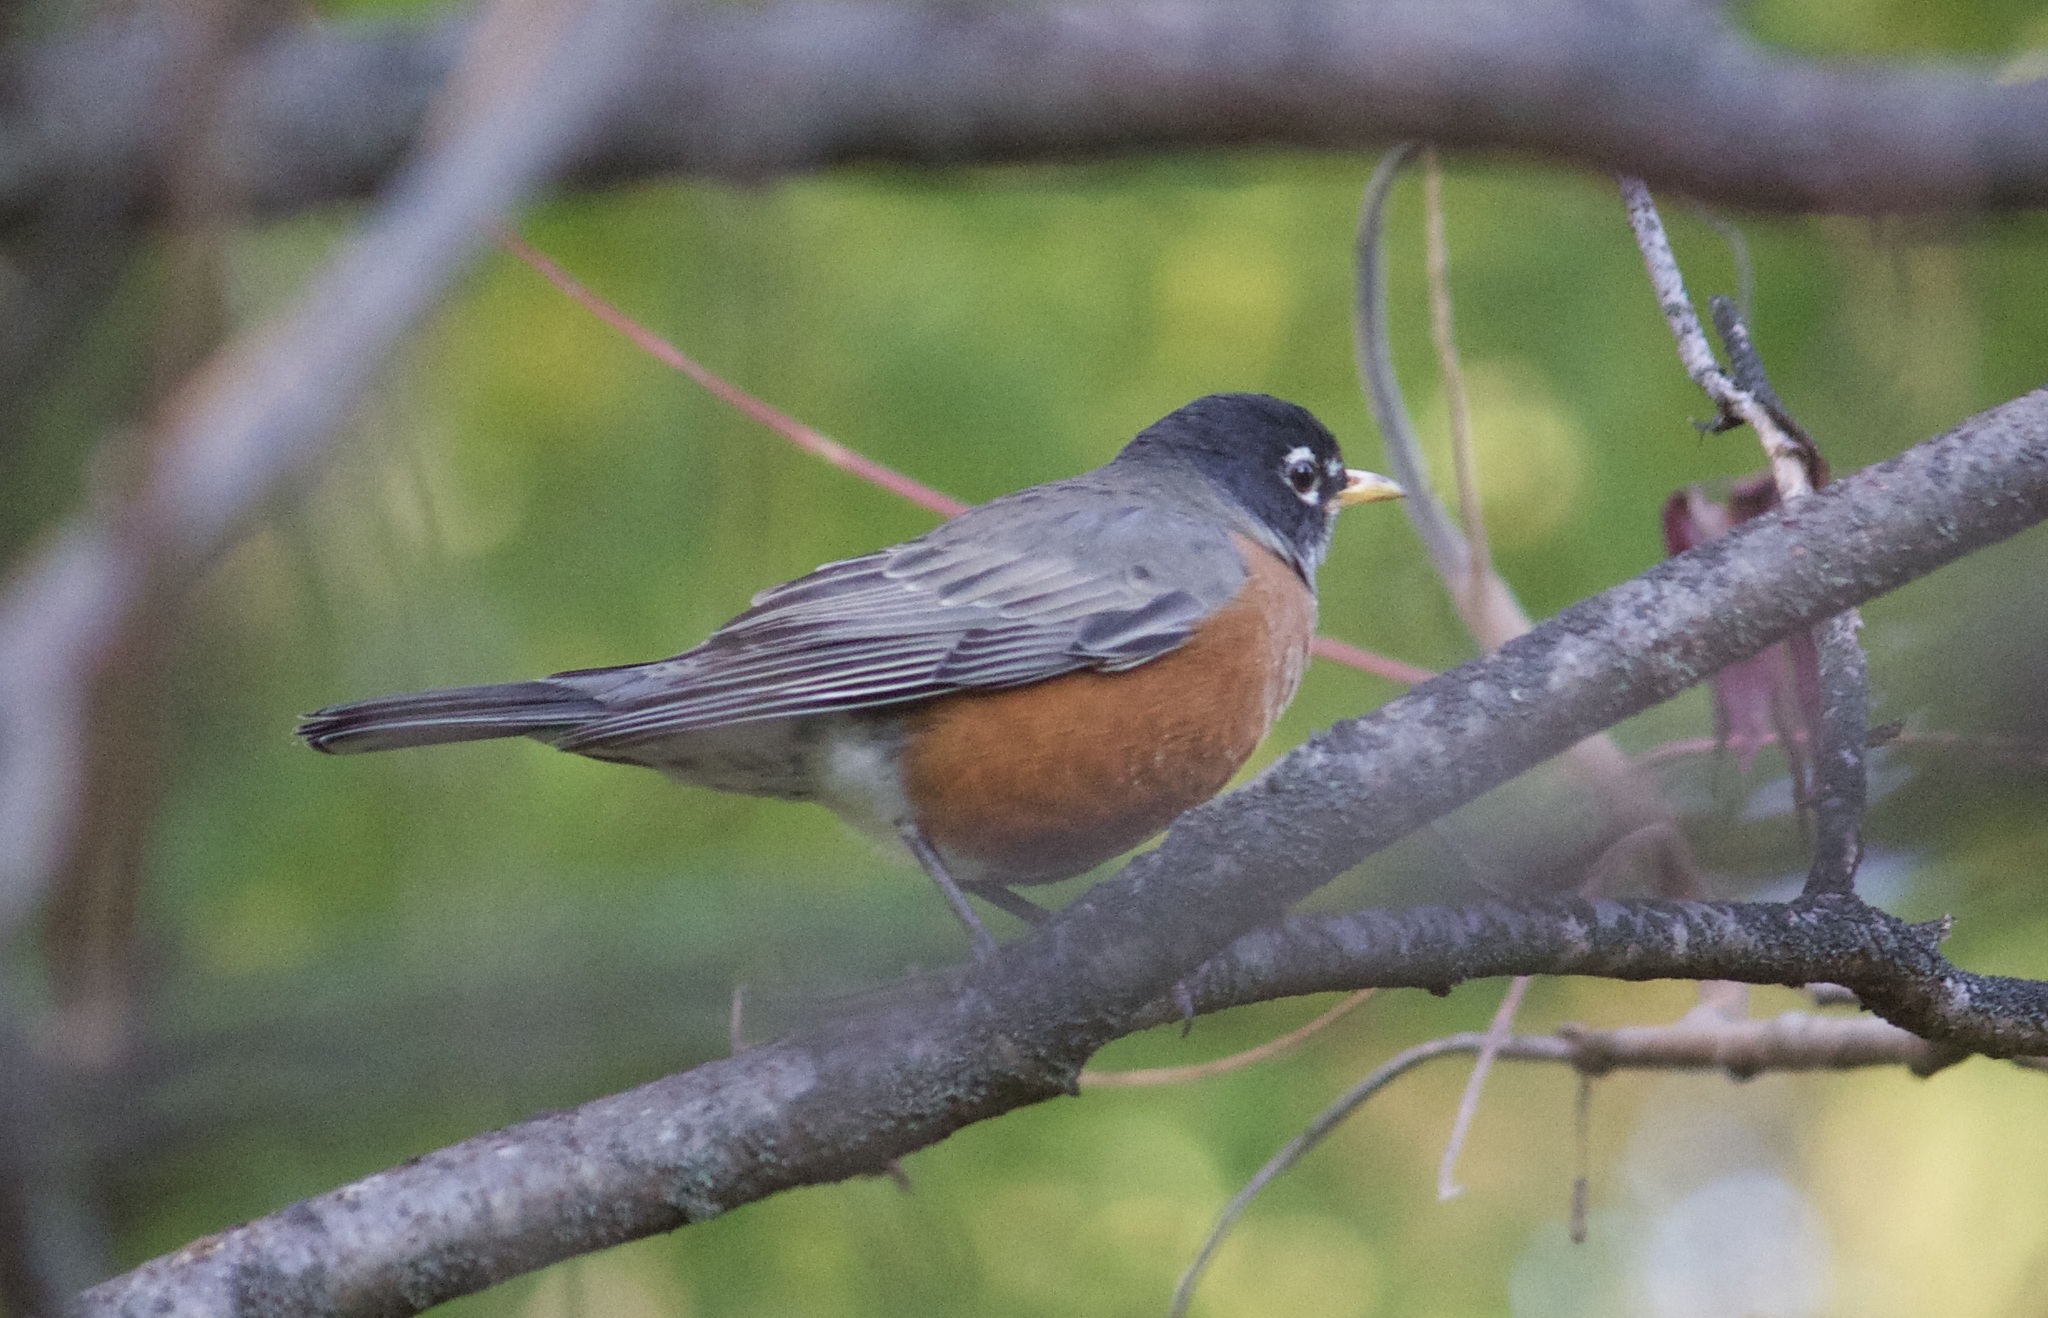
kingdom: Animalia
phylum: Chordata
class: Aves
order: Passeriformes
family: Turdidae
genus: Turdus
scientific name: Turdus migratorius
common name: American robin
